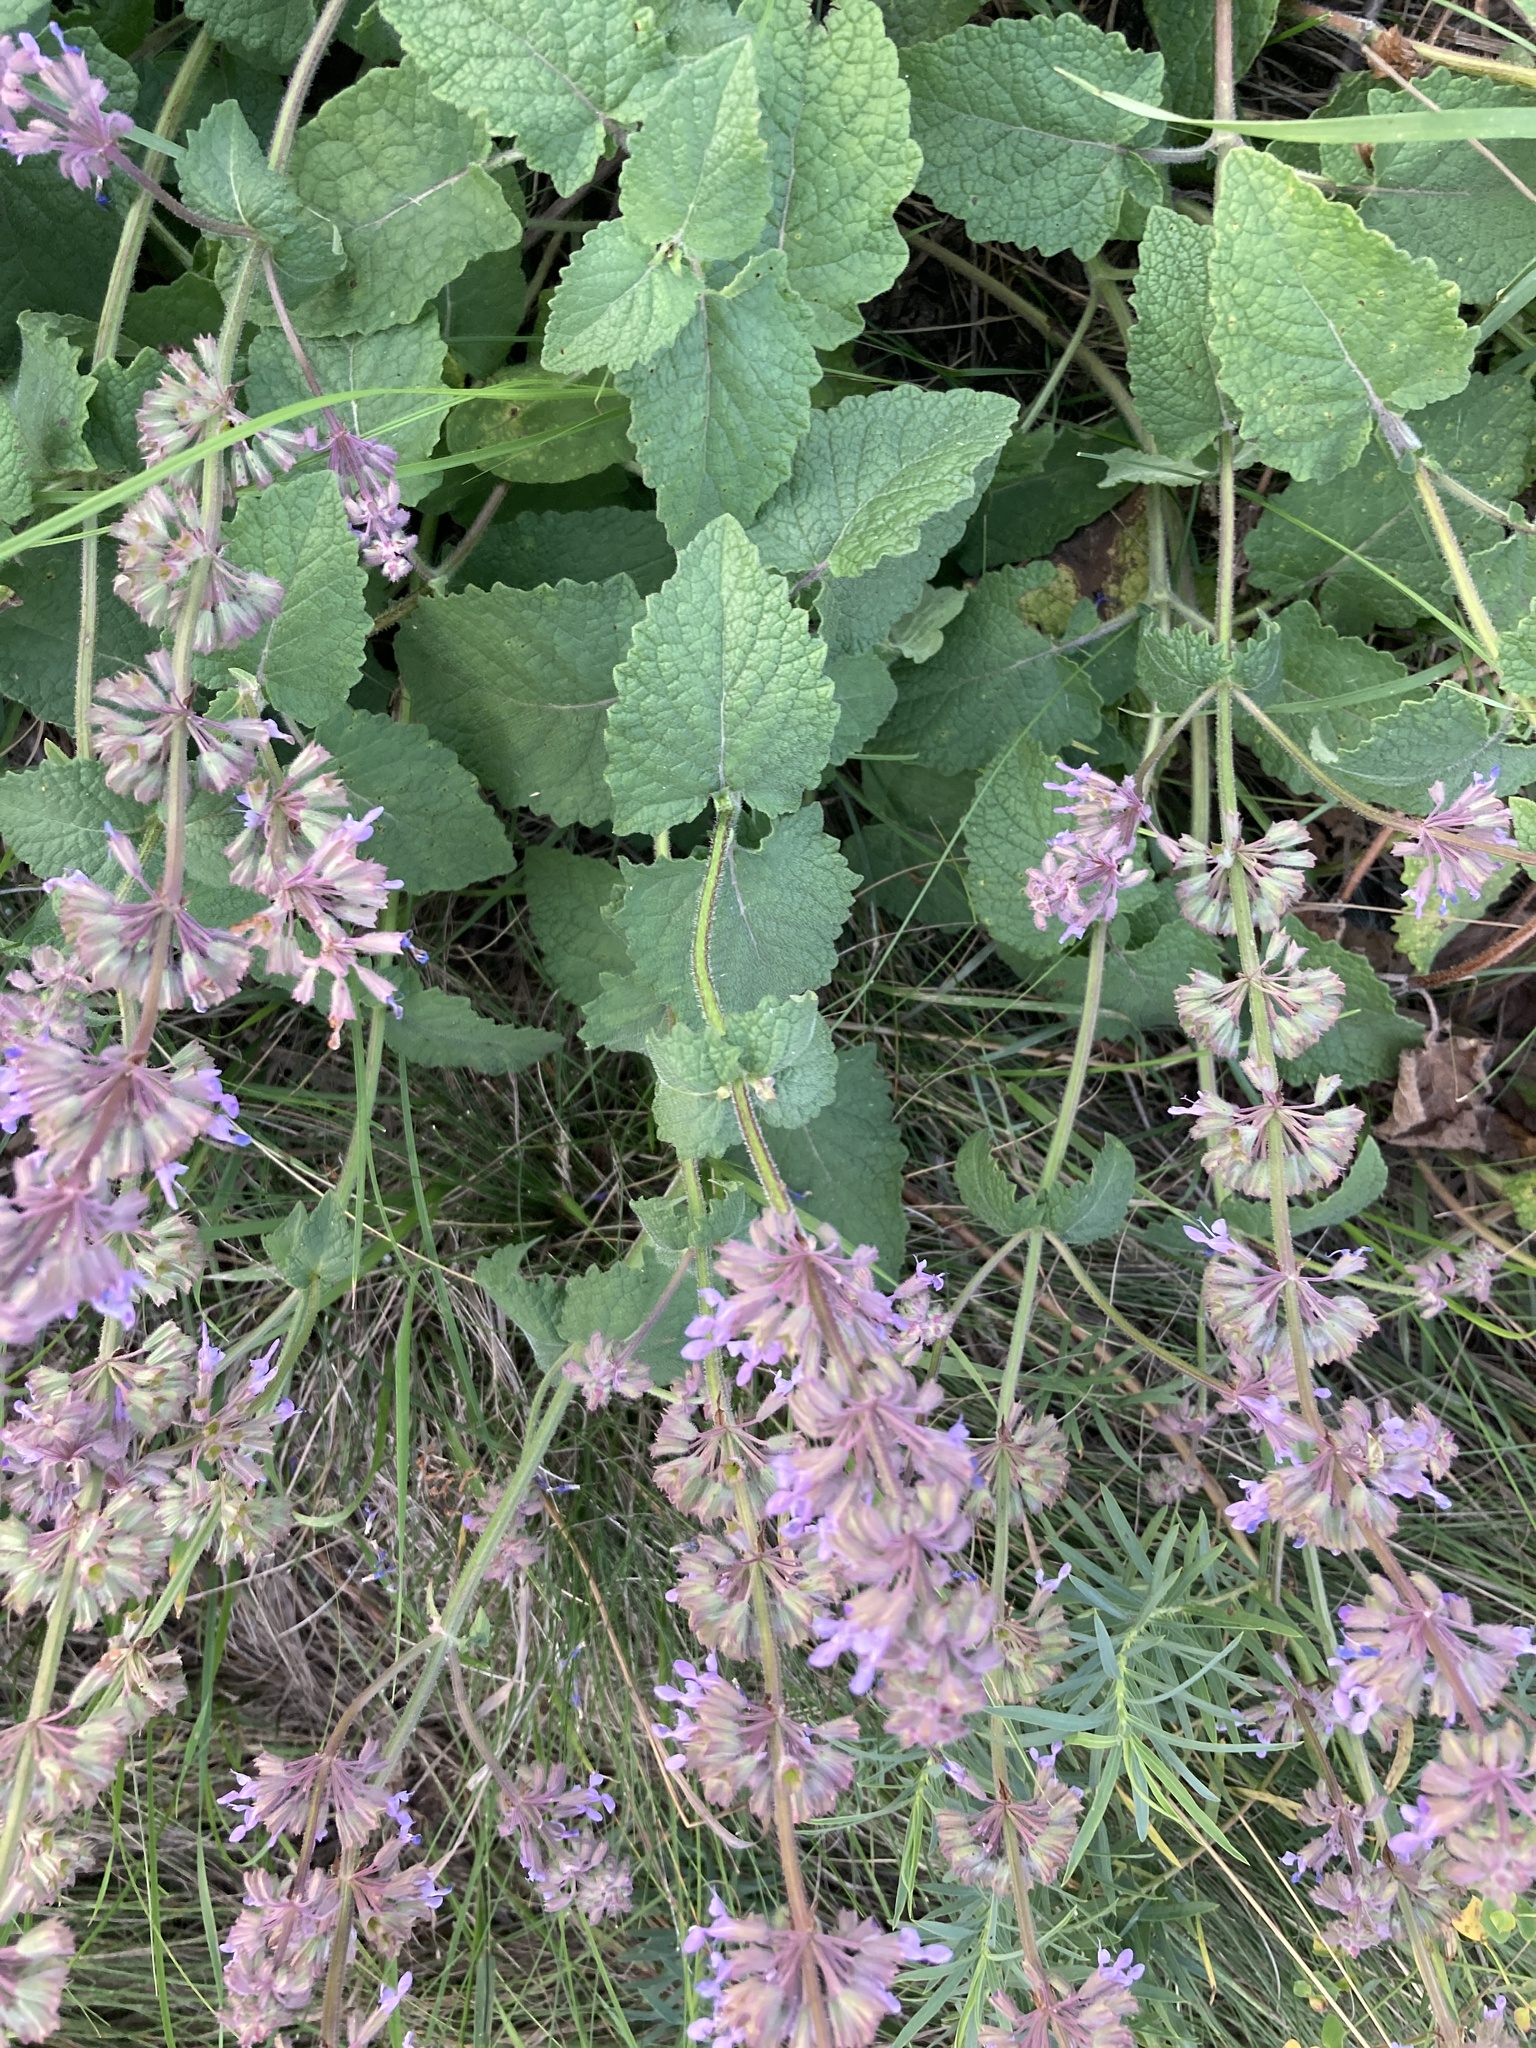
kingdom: Plantae
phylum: Tracheophyta
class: Magnoliopsida
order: Lamiales
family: Lamiaceae
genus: Salvia
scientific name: Salvia verticillata
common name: Whorled clary
